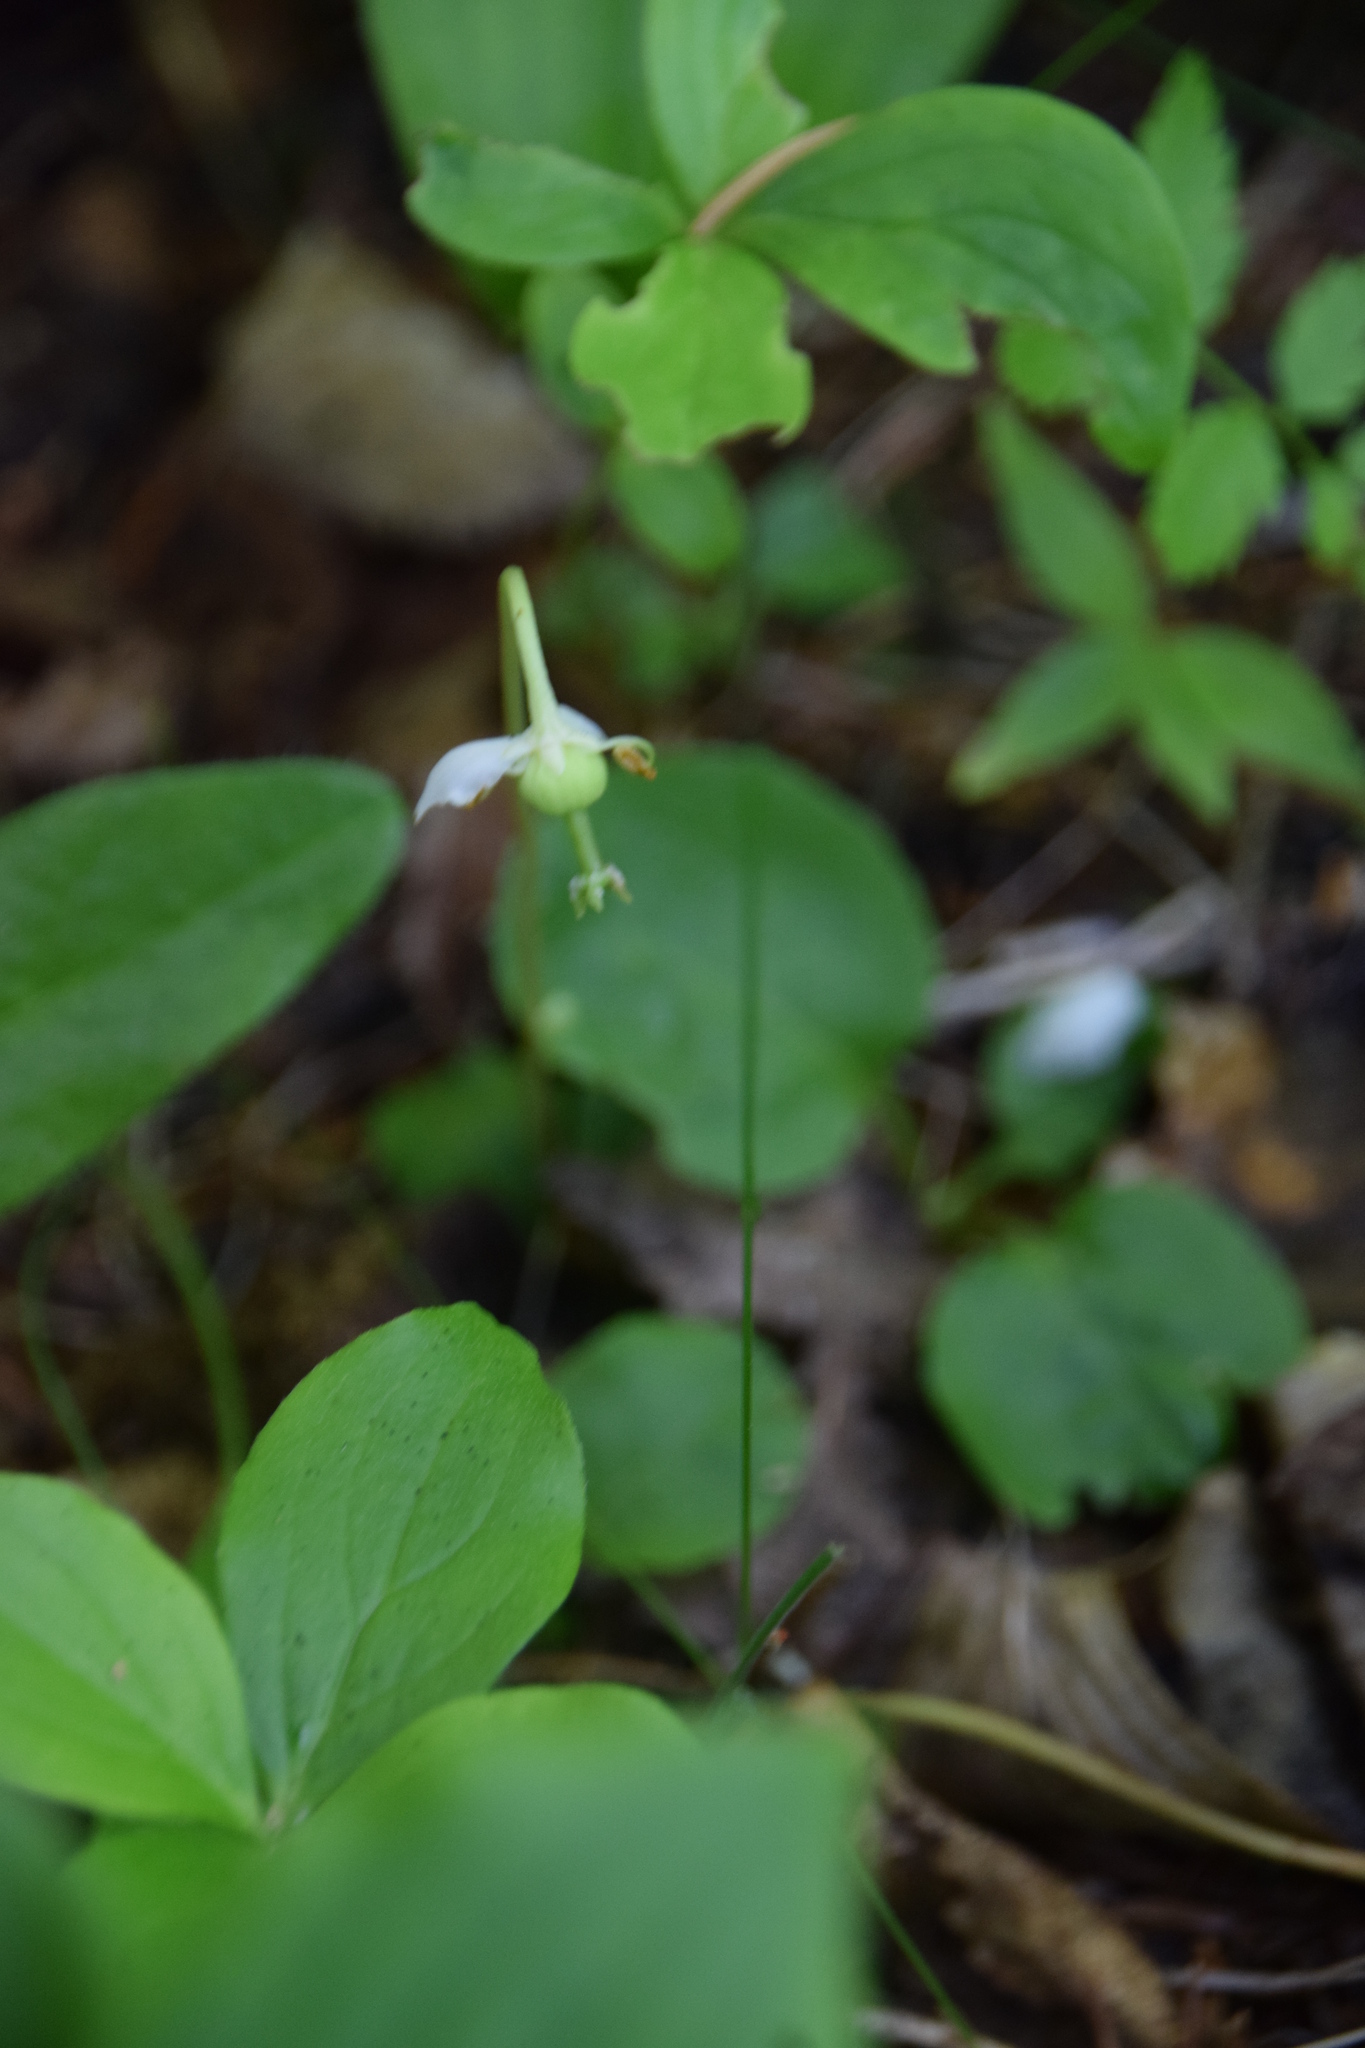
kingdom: Plantae
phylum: Tracheophyta
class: Magnoliopsida
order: Ericales
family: Ericaceae
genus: Moneses
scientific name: Moneses uniflora
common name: One-flowered wintergreen
